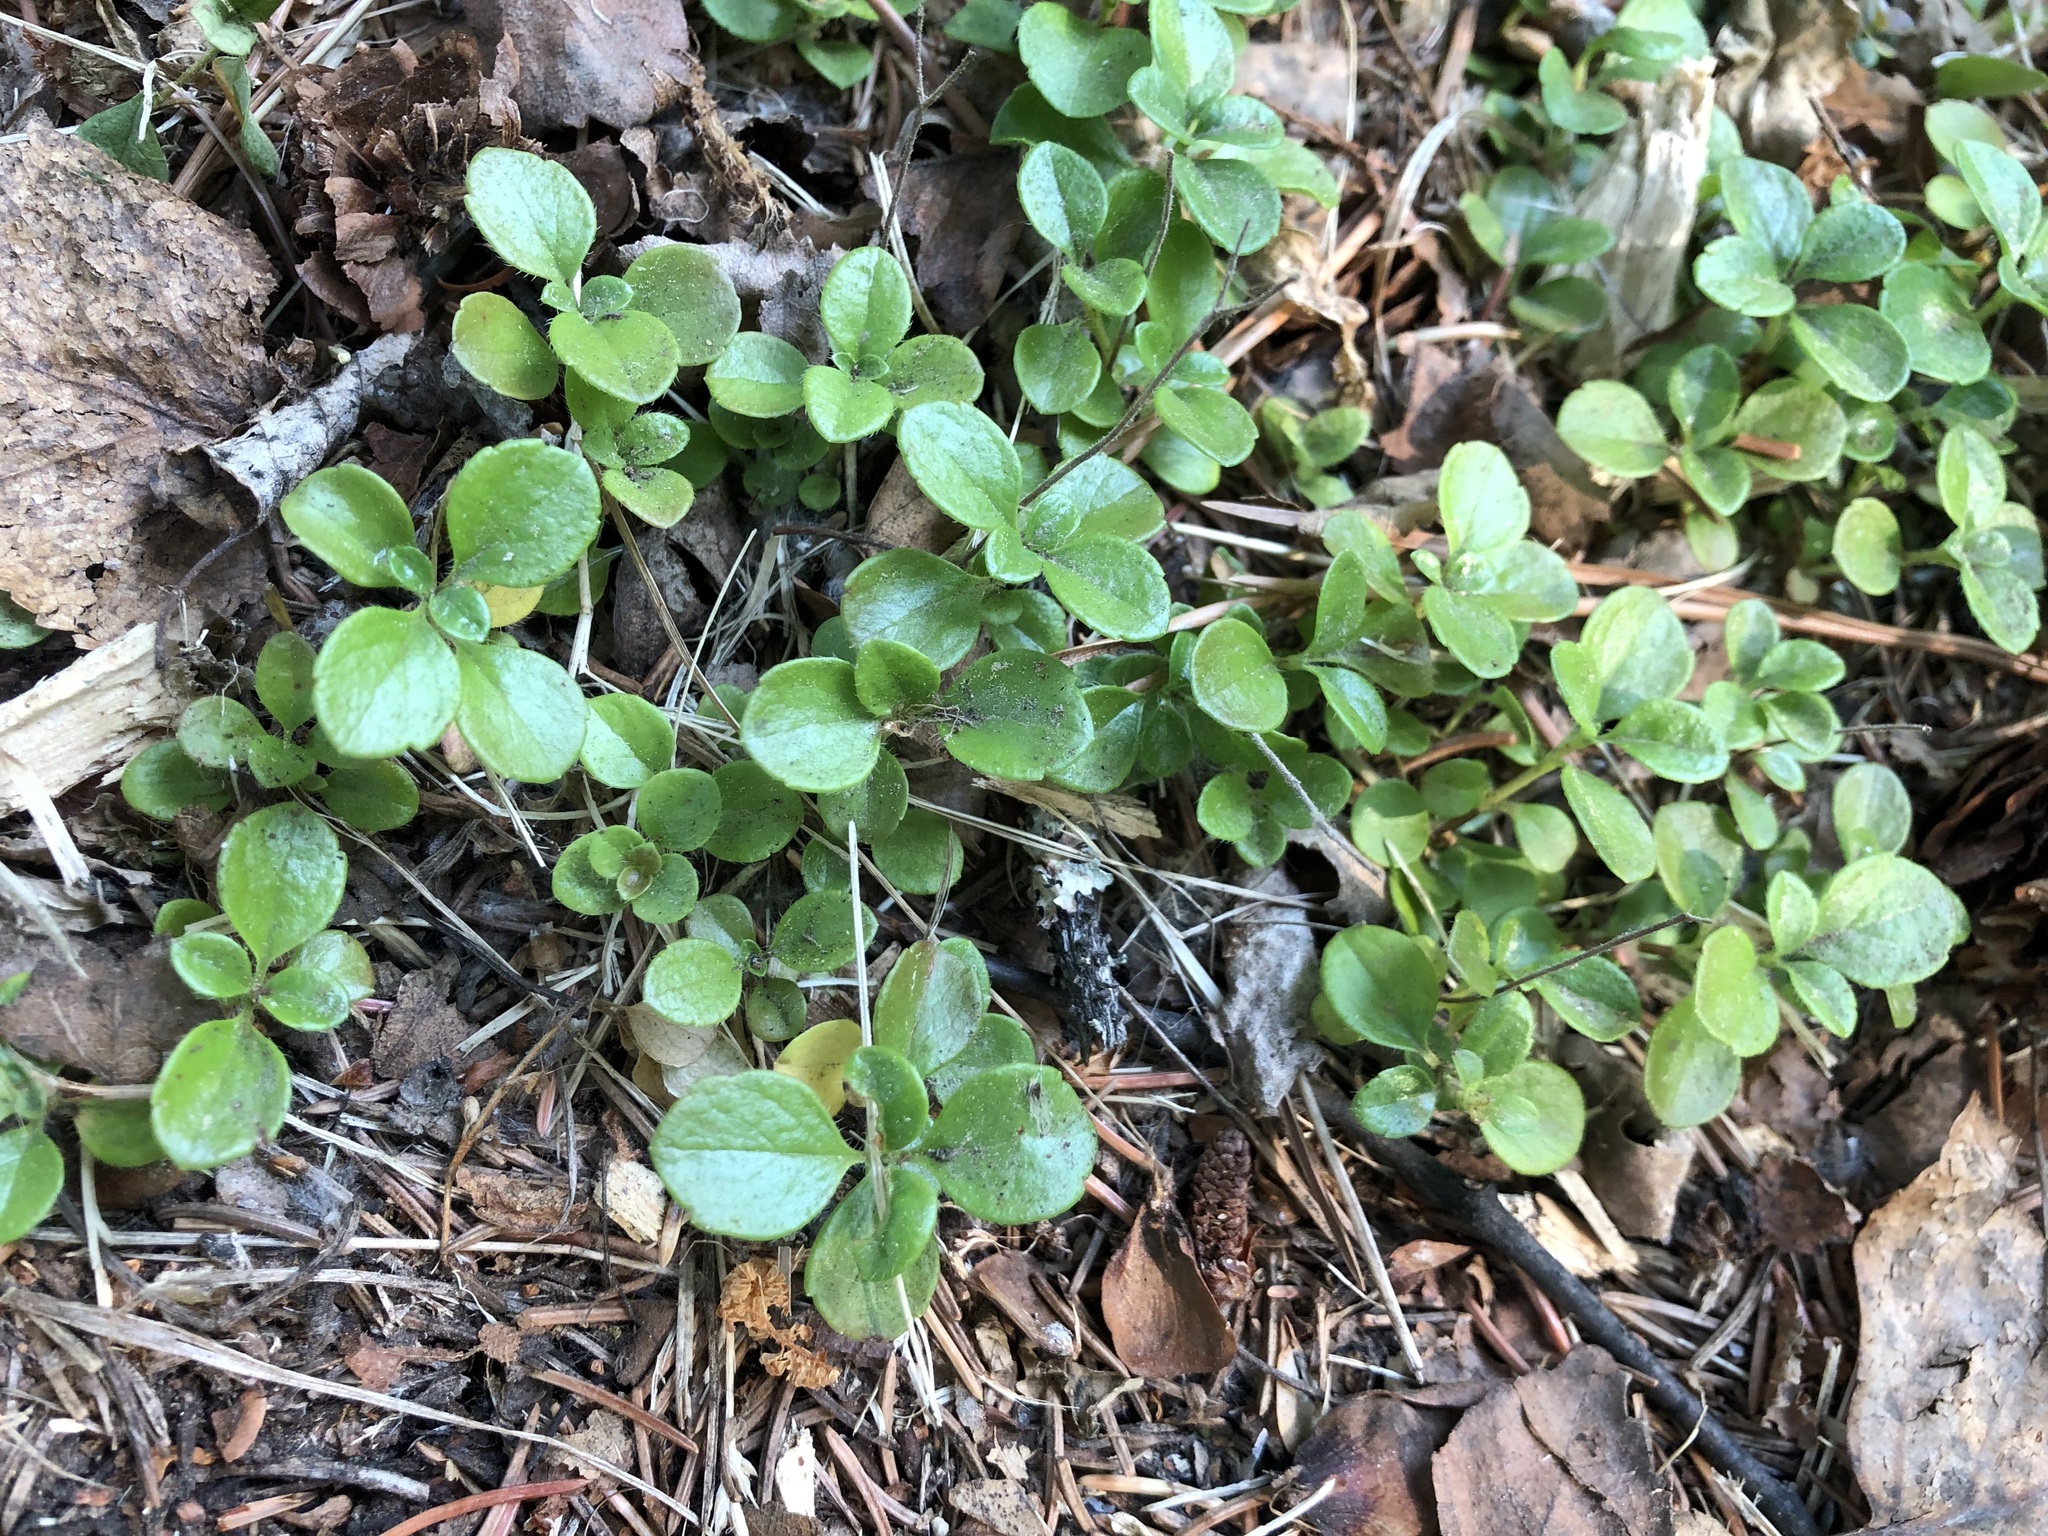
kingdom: Plantae
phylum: Tracheophyta
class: Magnoliopsida
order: Dipsacales
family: Caprifoliaceae
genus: Linnaea
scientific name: Linnaea borealis
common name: Twinflower
